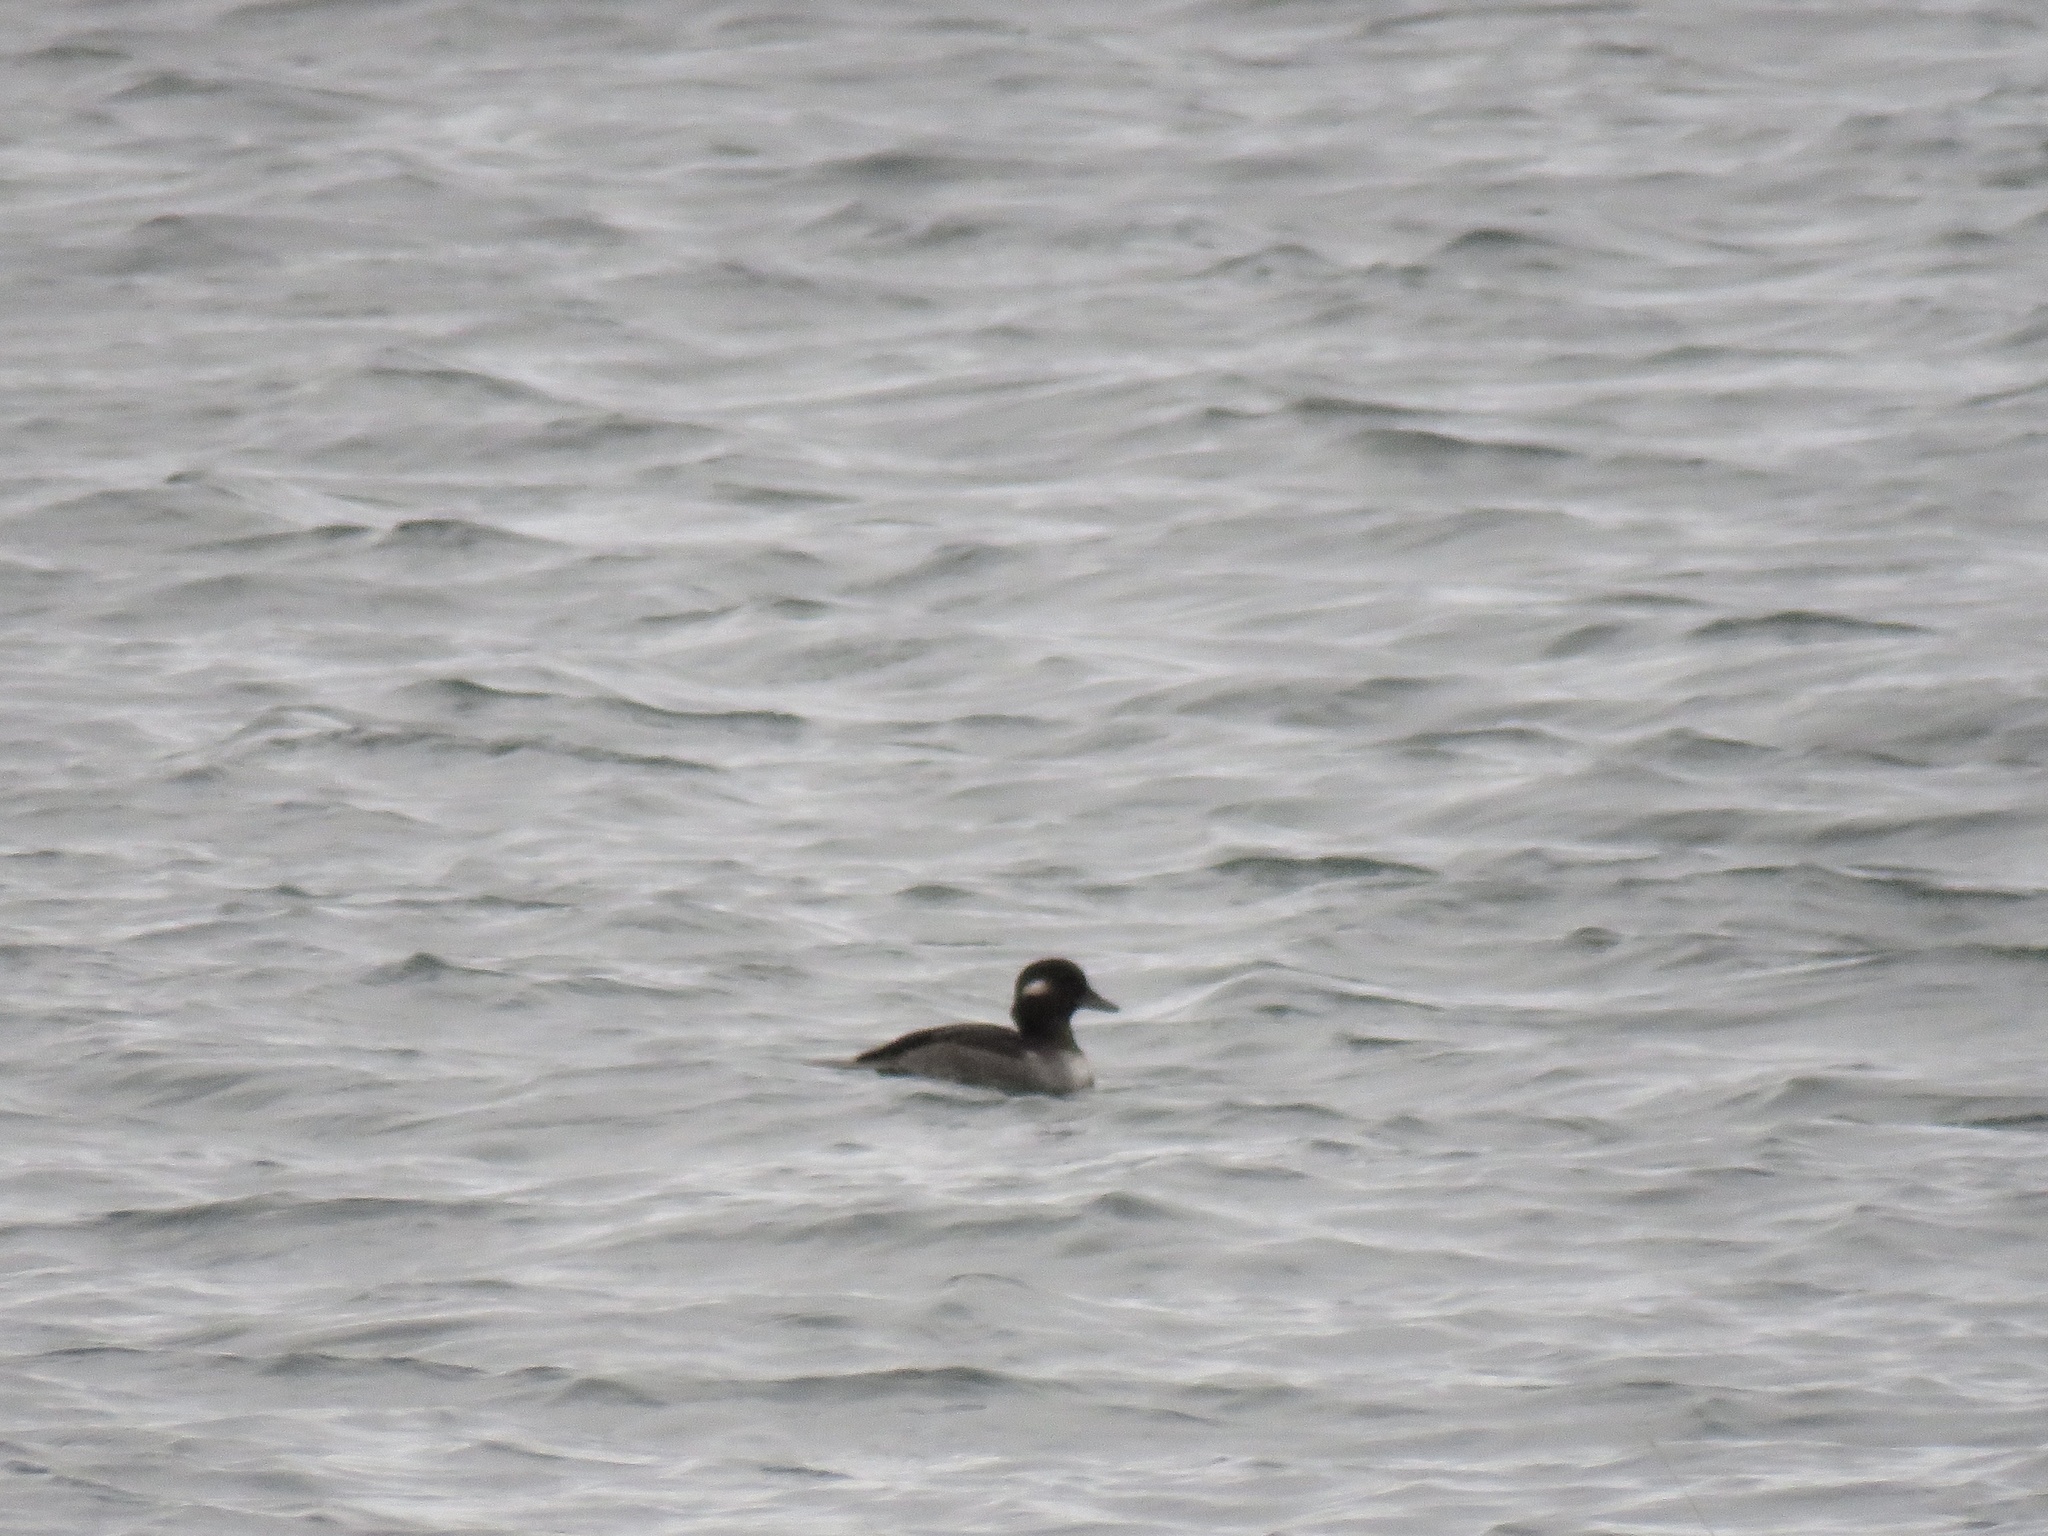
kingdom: Animalia
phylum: Chordata
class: Aves
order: Anseriformes
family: Anatidae
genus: Bucephala
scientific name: Bucephala albeola
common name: Bufflehead
